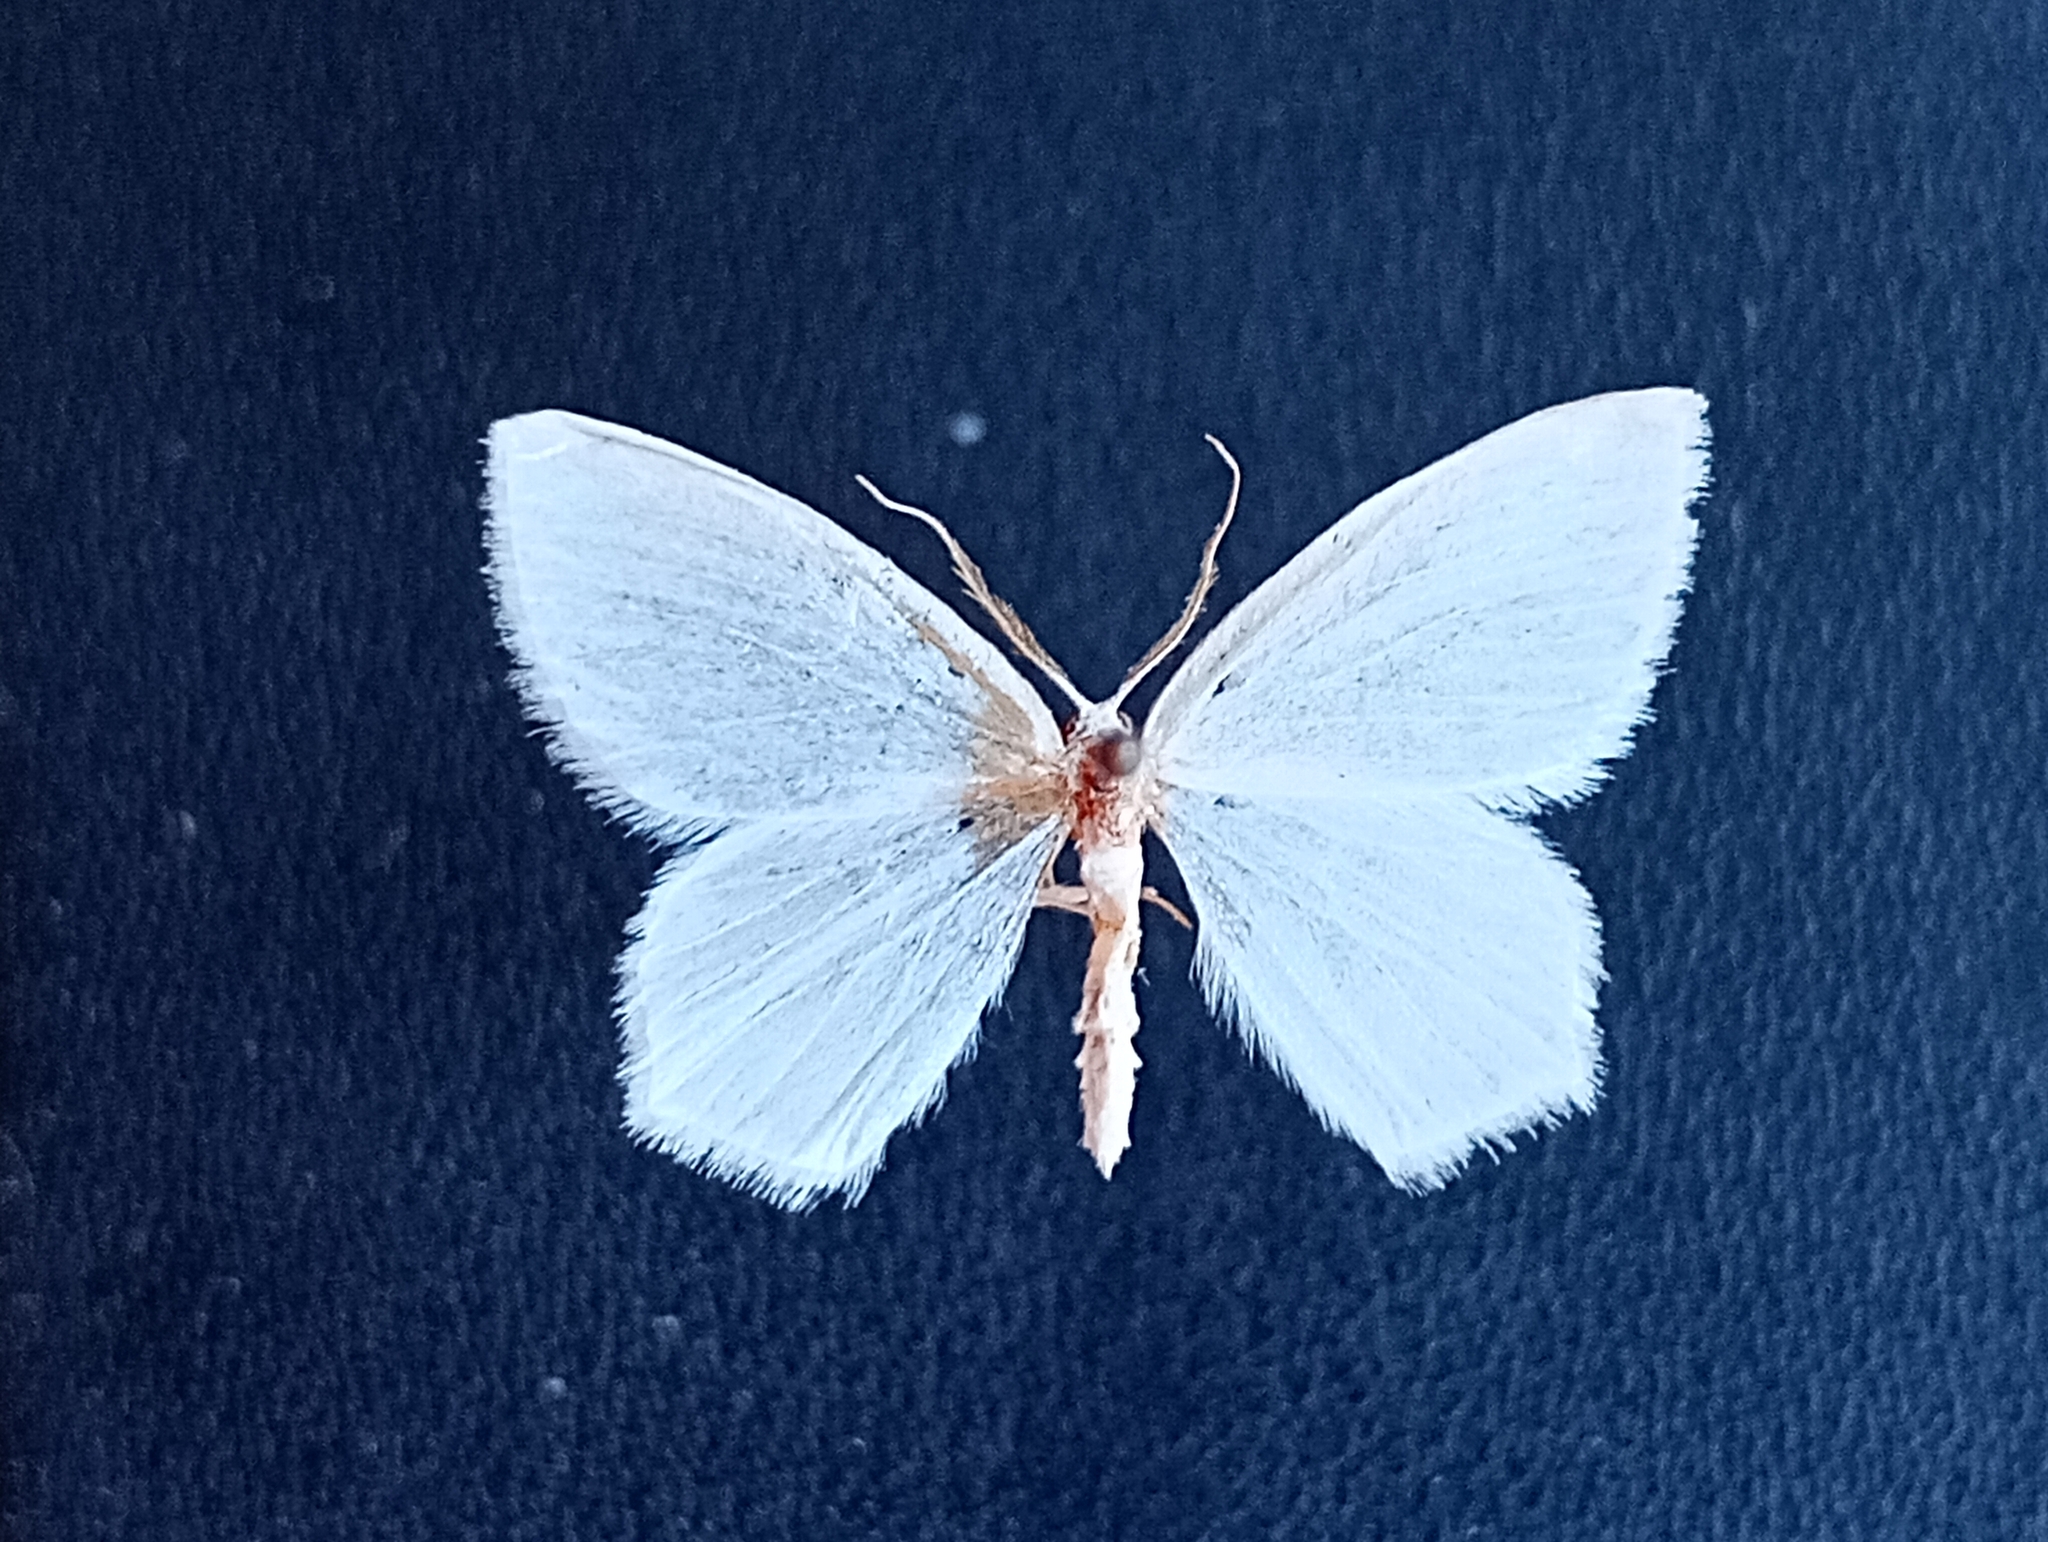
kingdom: Animalia
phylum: Arthropoda
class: Insecta
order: Lepidoptera
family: Geometridae
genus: Jodis
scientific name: Jodis lactearia
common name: Little emerald
